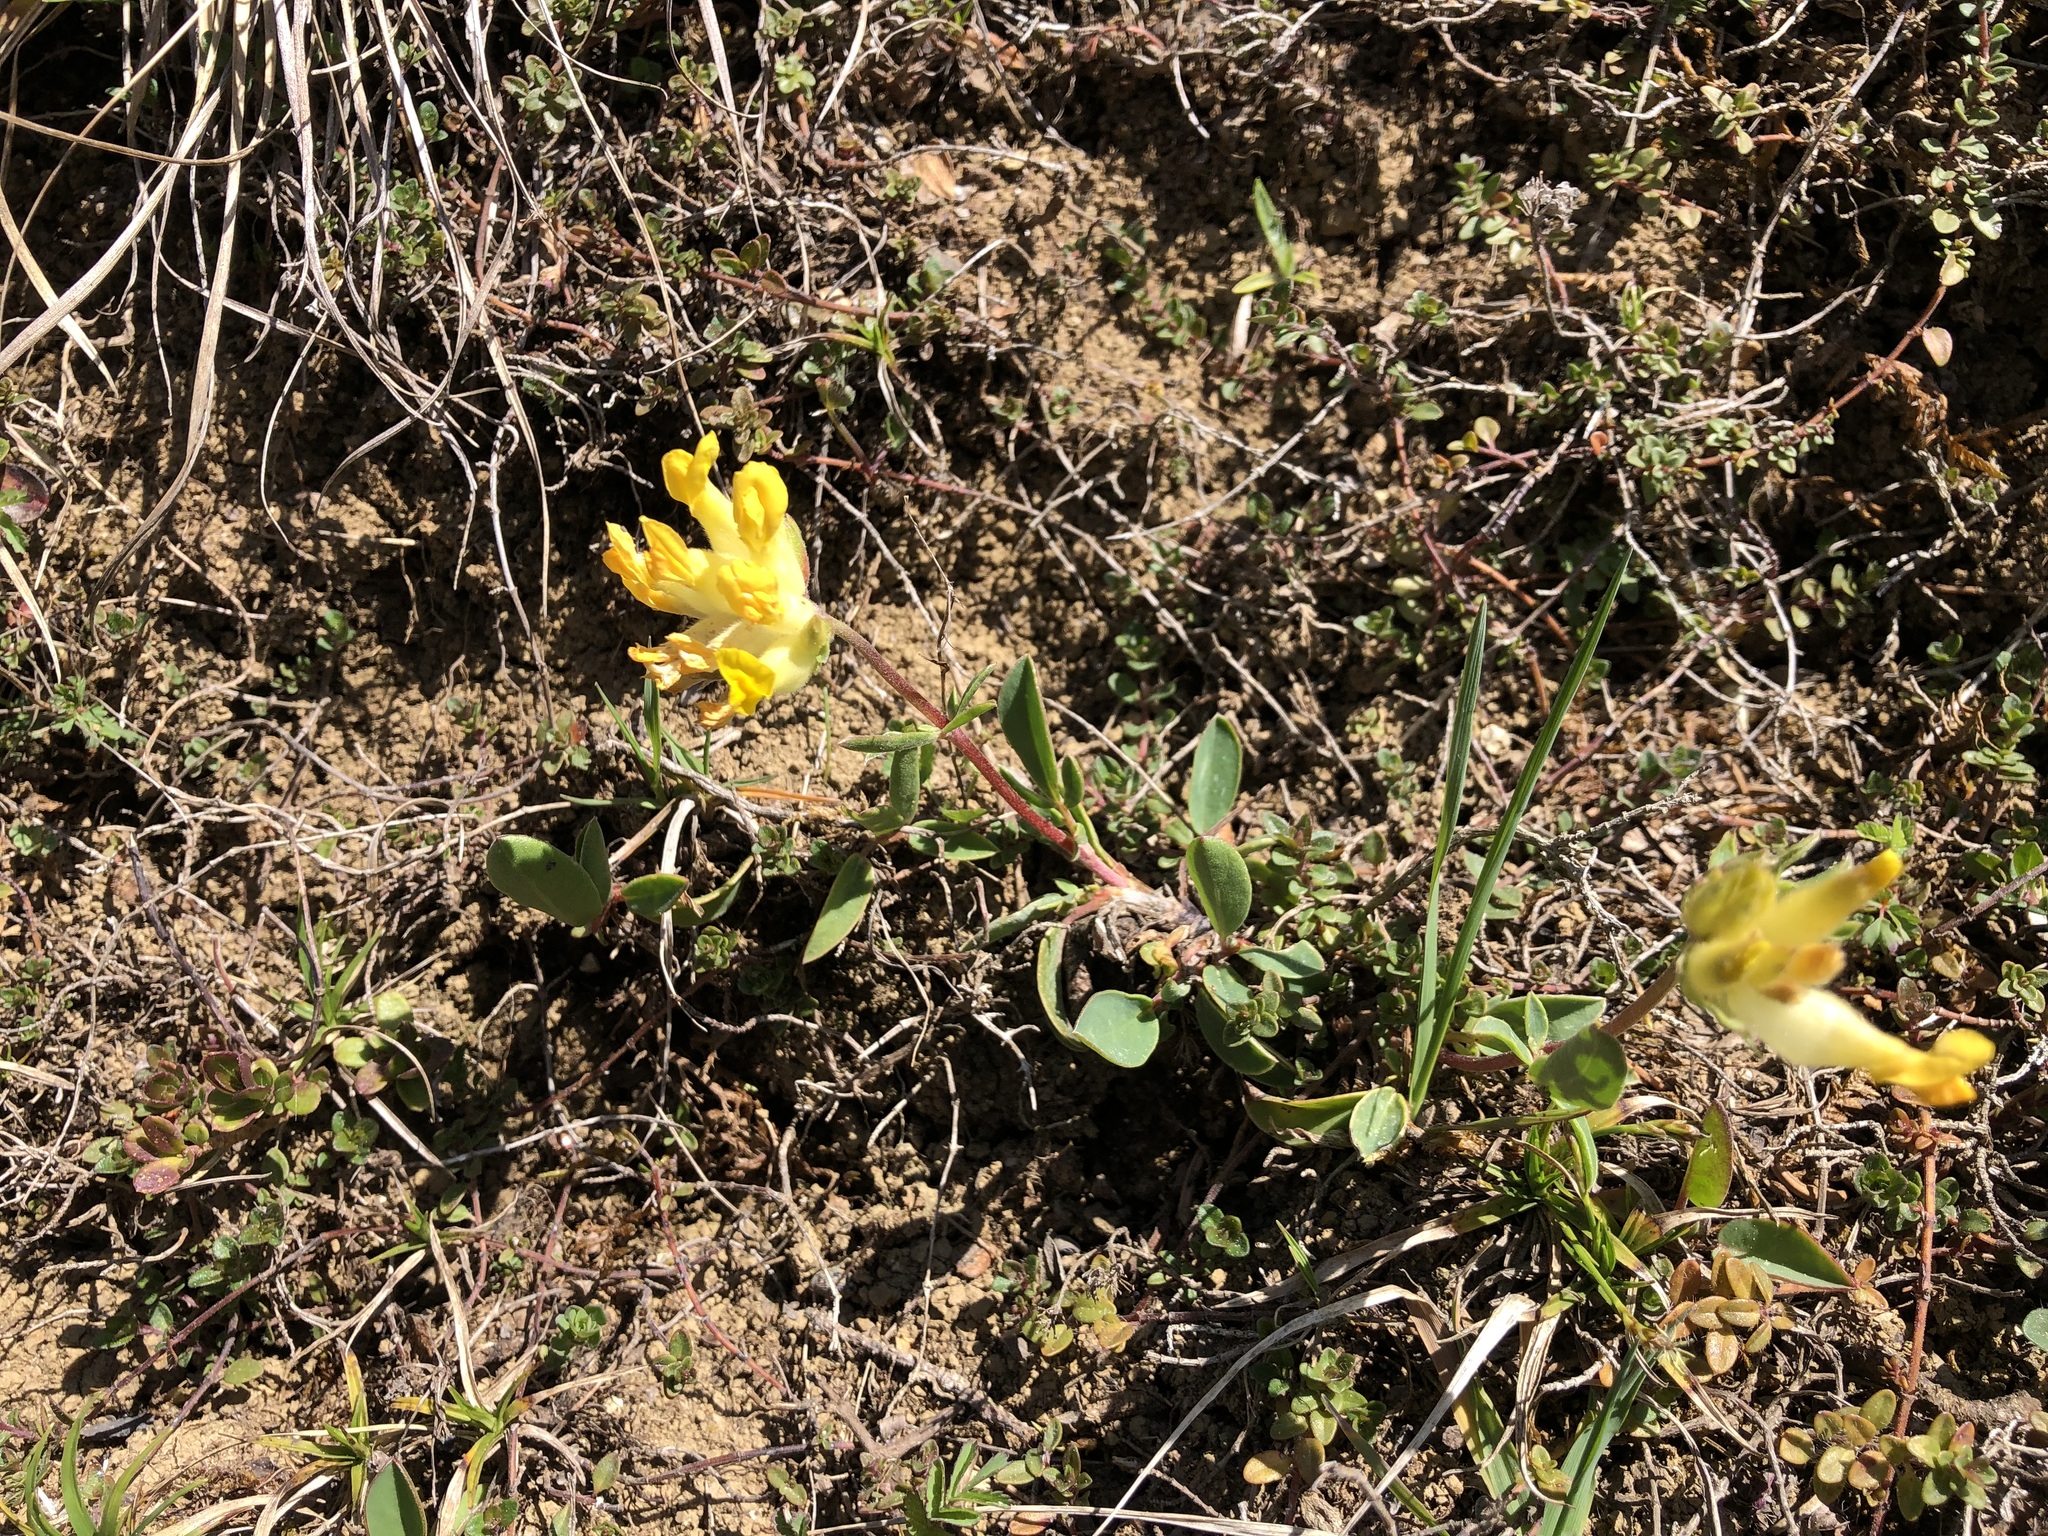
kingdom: Plantae
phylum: Tracheophyta
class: Magnoliopsida
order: Fabales
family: Fabaceae
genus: Anthyllis
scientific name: Anthyllis vulneraria
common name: Kidney vetch
